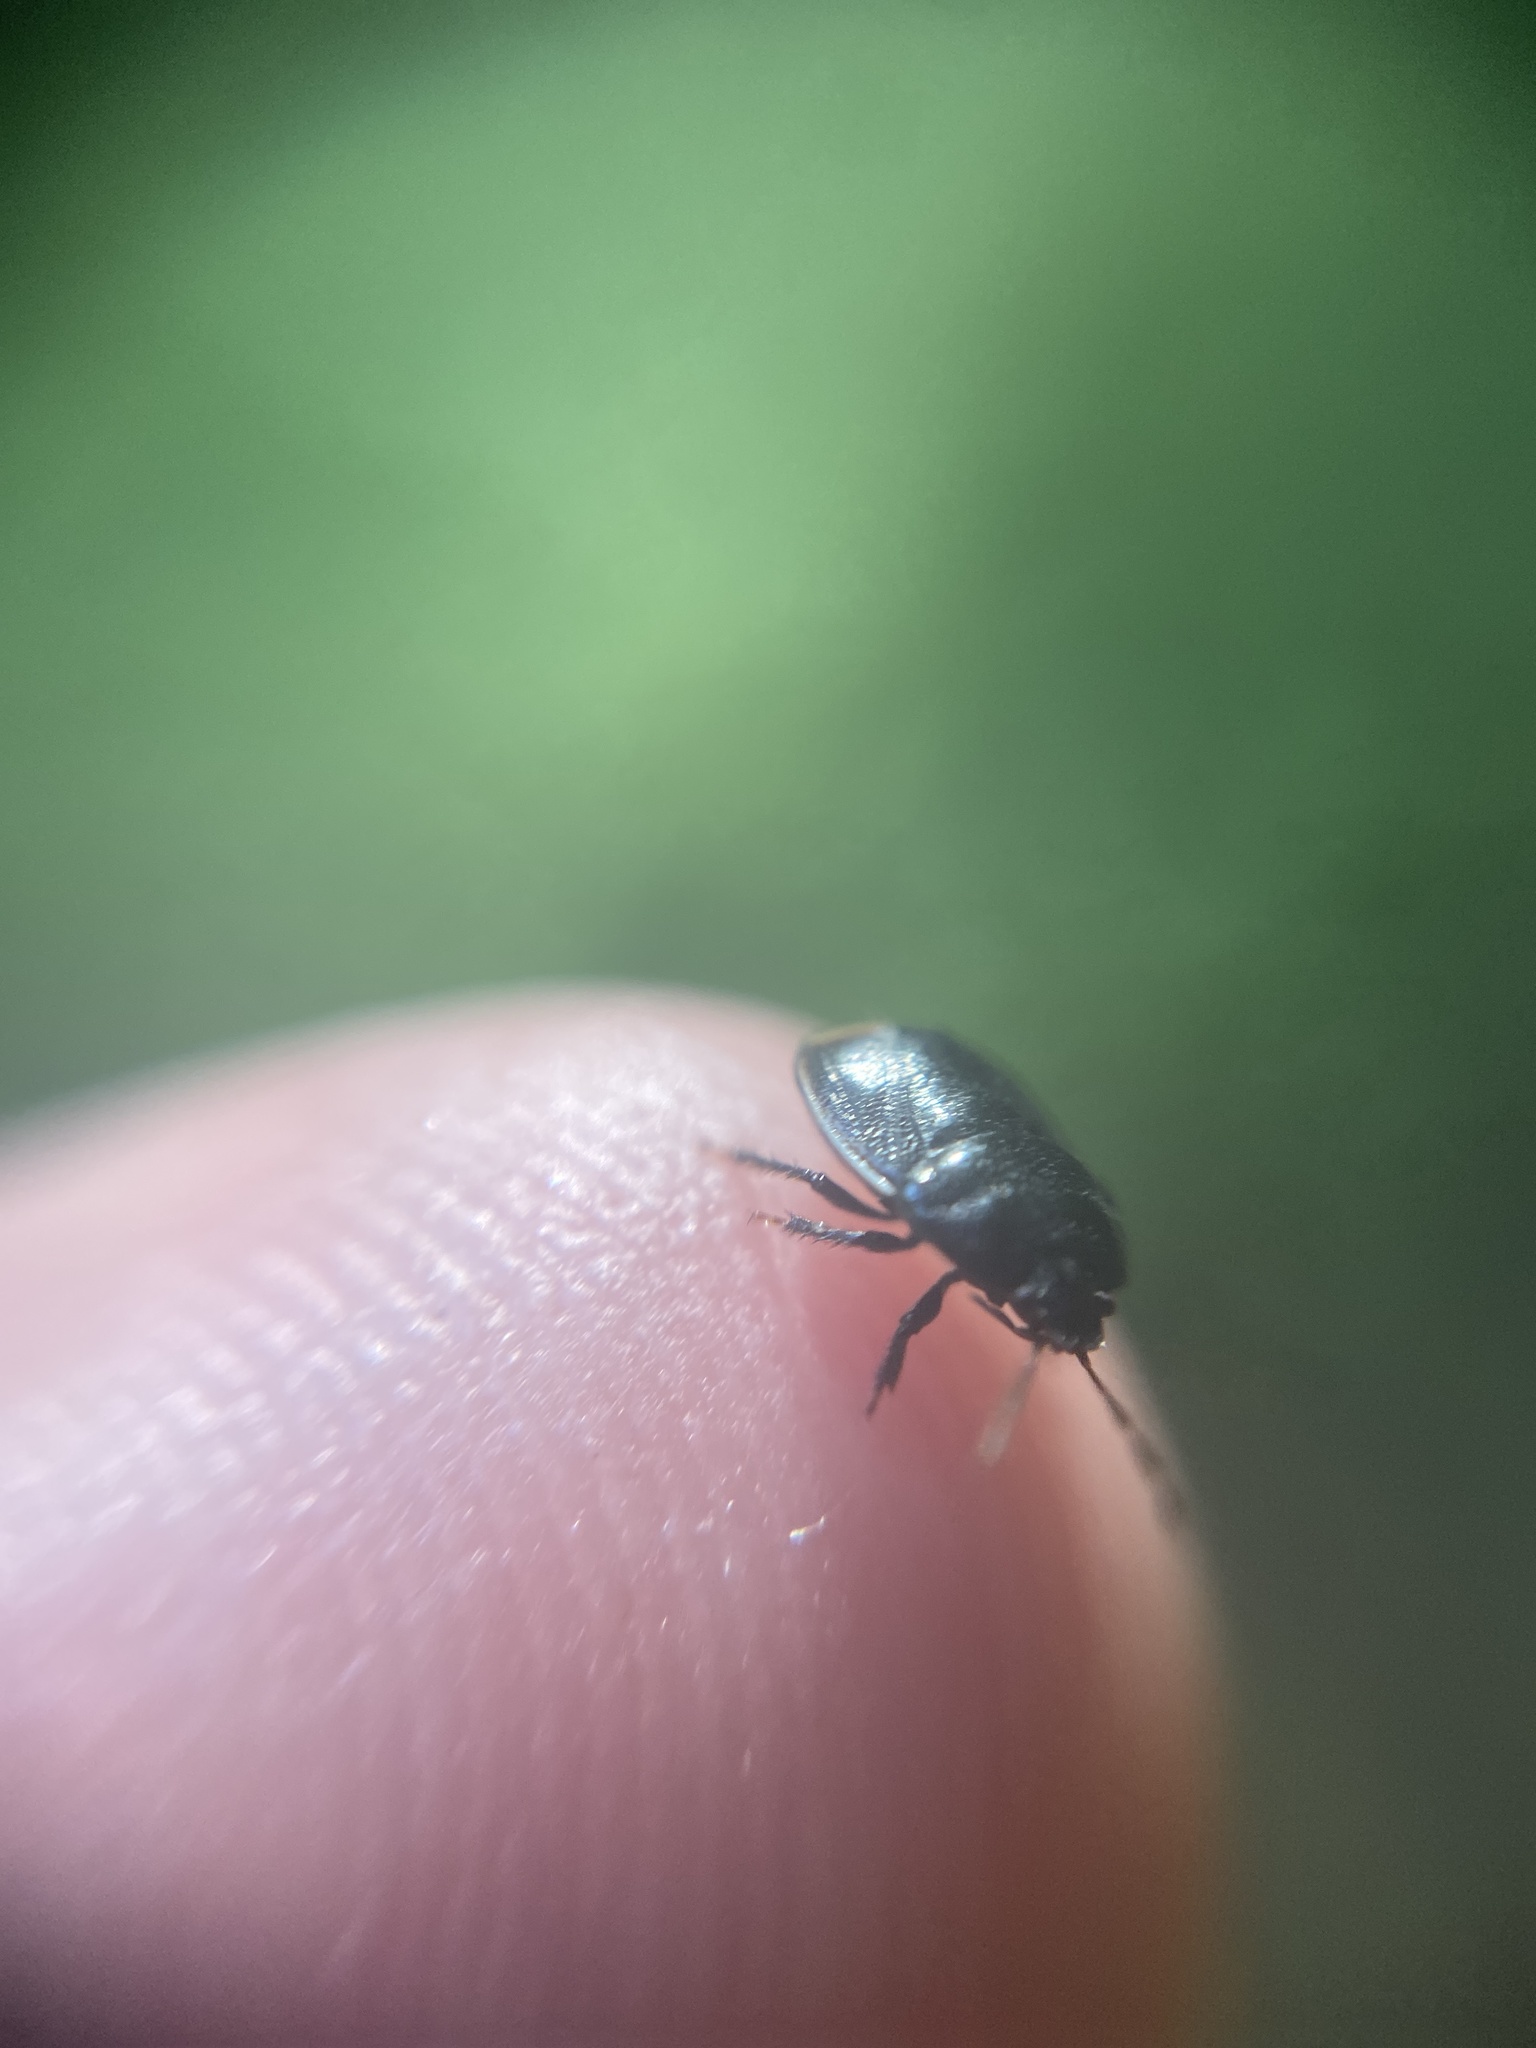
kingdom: Animalia
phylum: Arthropoda
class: Insecta
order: Hemiptera
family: Cydnidae
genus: Legnotus
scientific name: Legnotus limbosus
